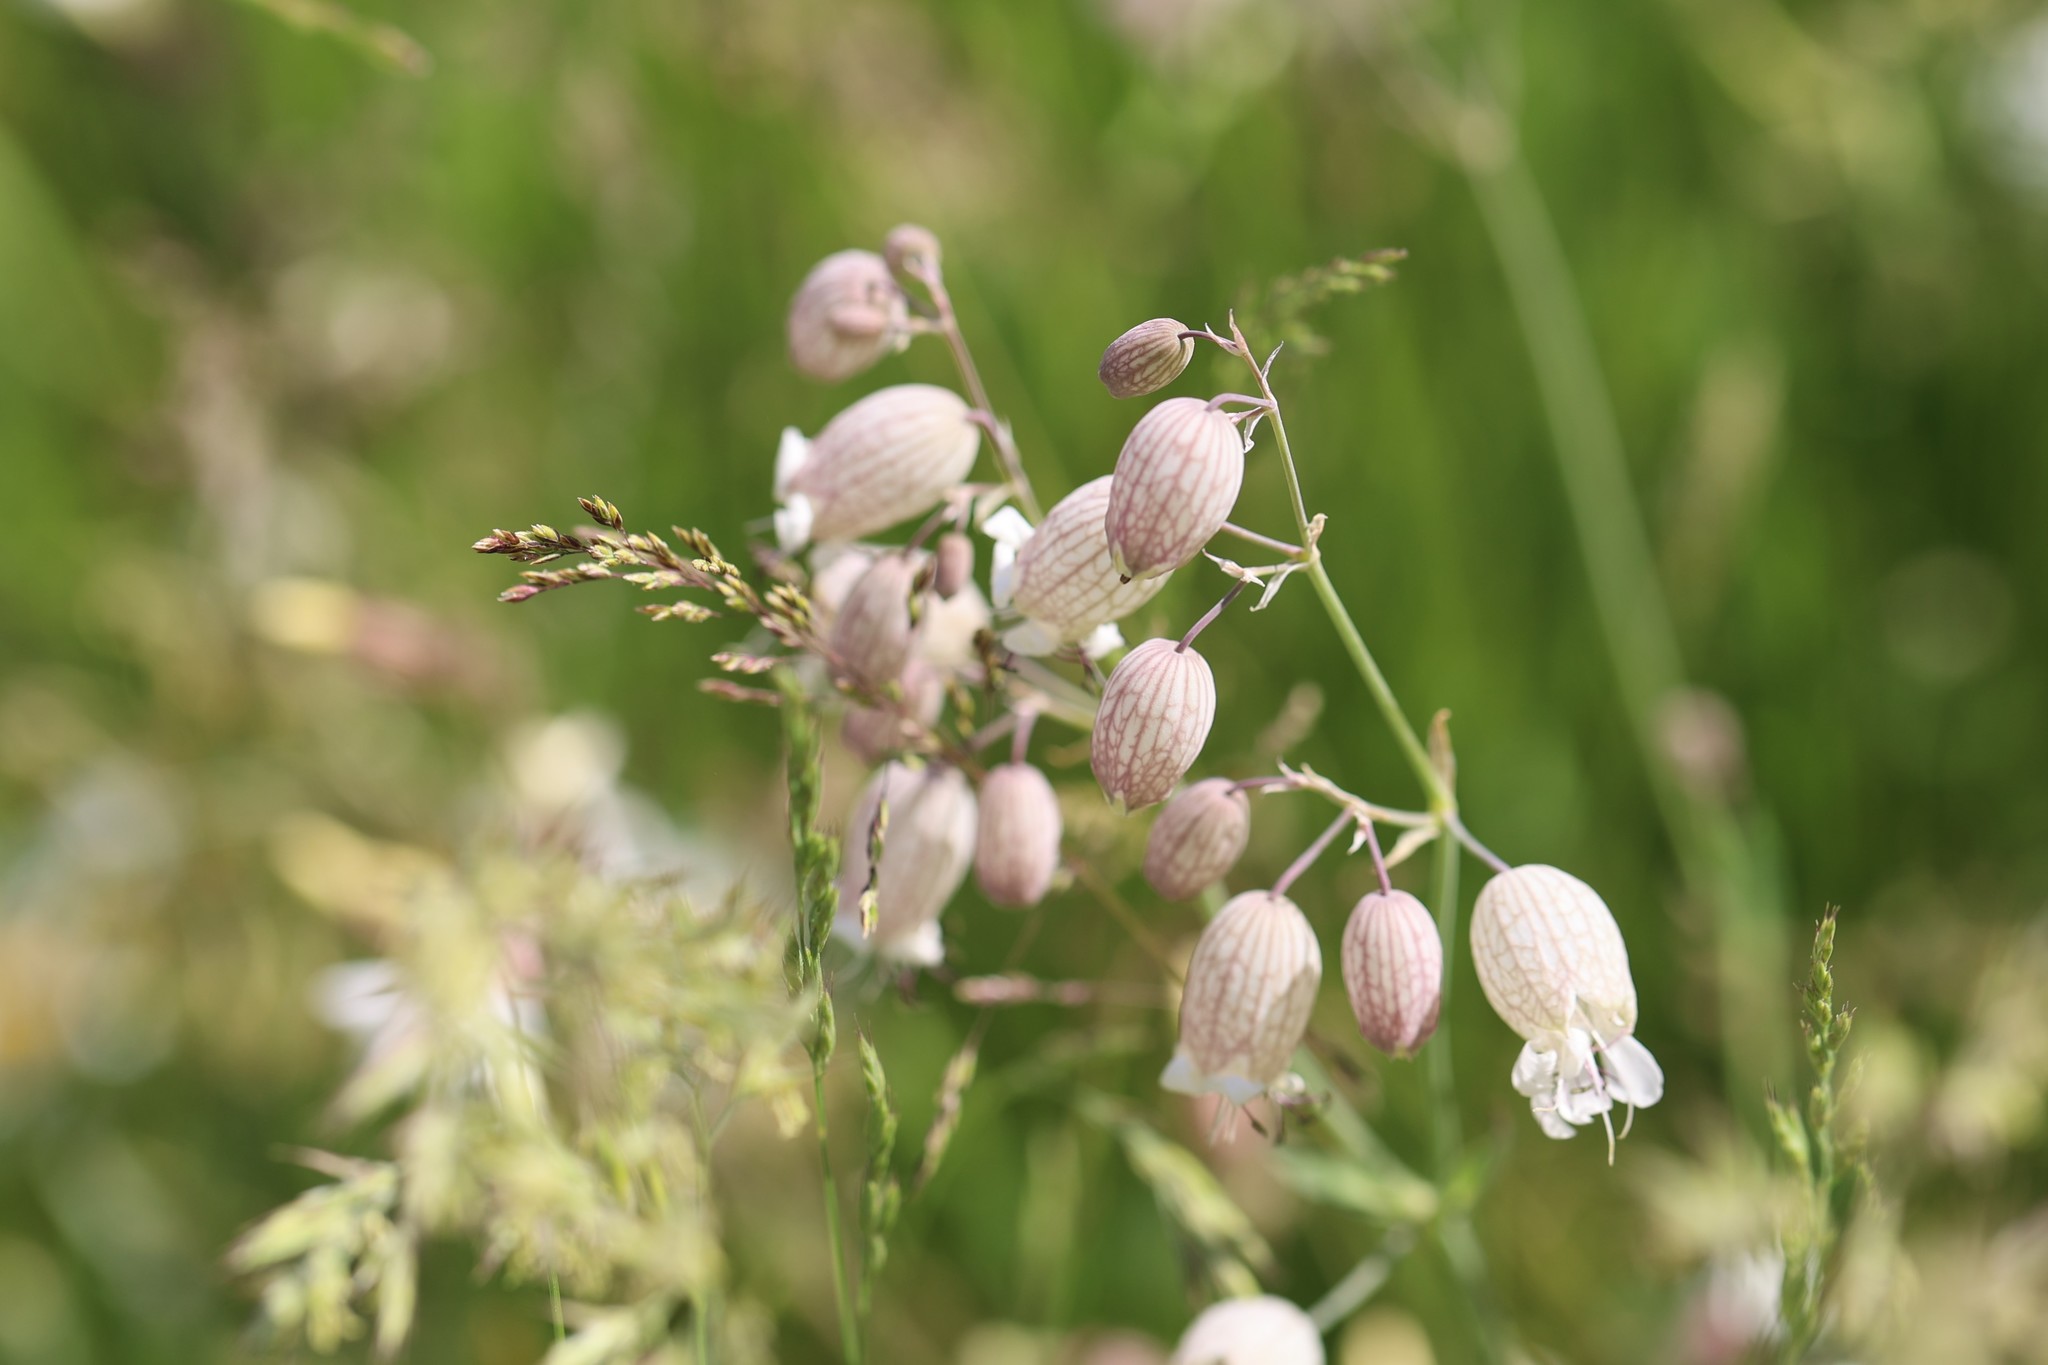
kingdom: Plantae
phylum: Tracheophyta
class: Magnoliopsida
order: Caryophyllales
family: Caryophyllaceae
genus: Silene
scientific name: Silene vulgaris
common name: Bladder campion
